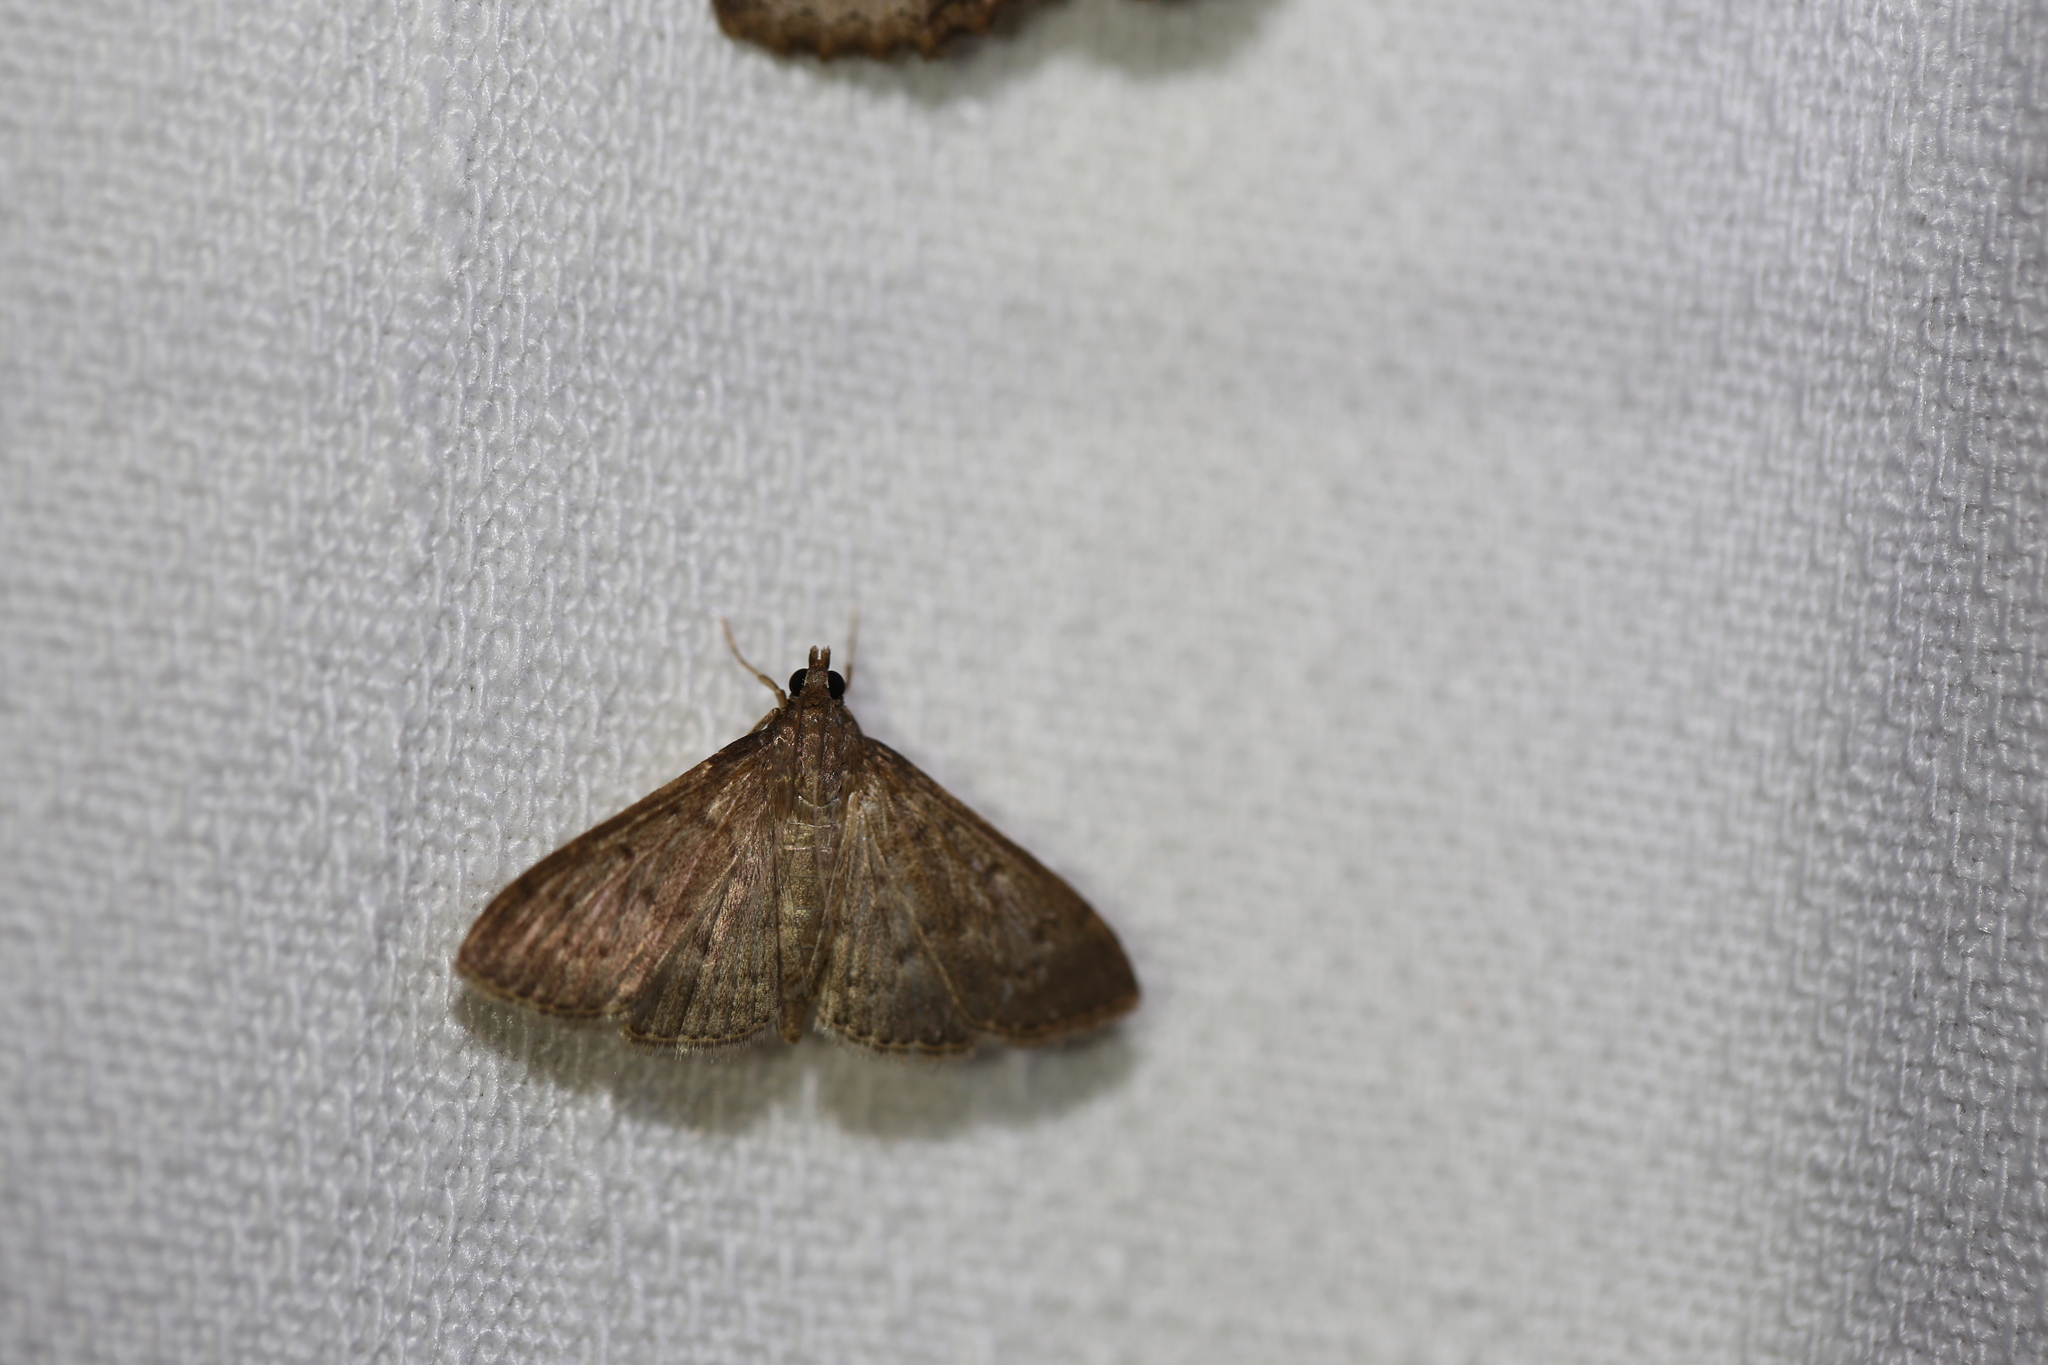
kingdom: Animalia
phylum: Arthropoda
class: Insecta
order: Lepidoptera
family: Crambidae
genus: Herpetogramma
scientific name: Herpetogramma licarsisalis
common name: Grass webworm
